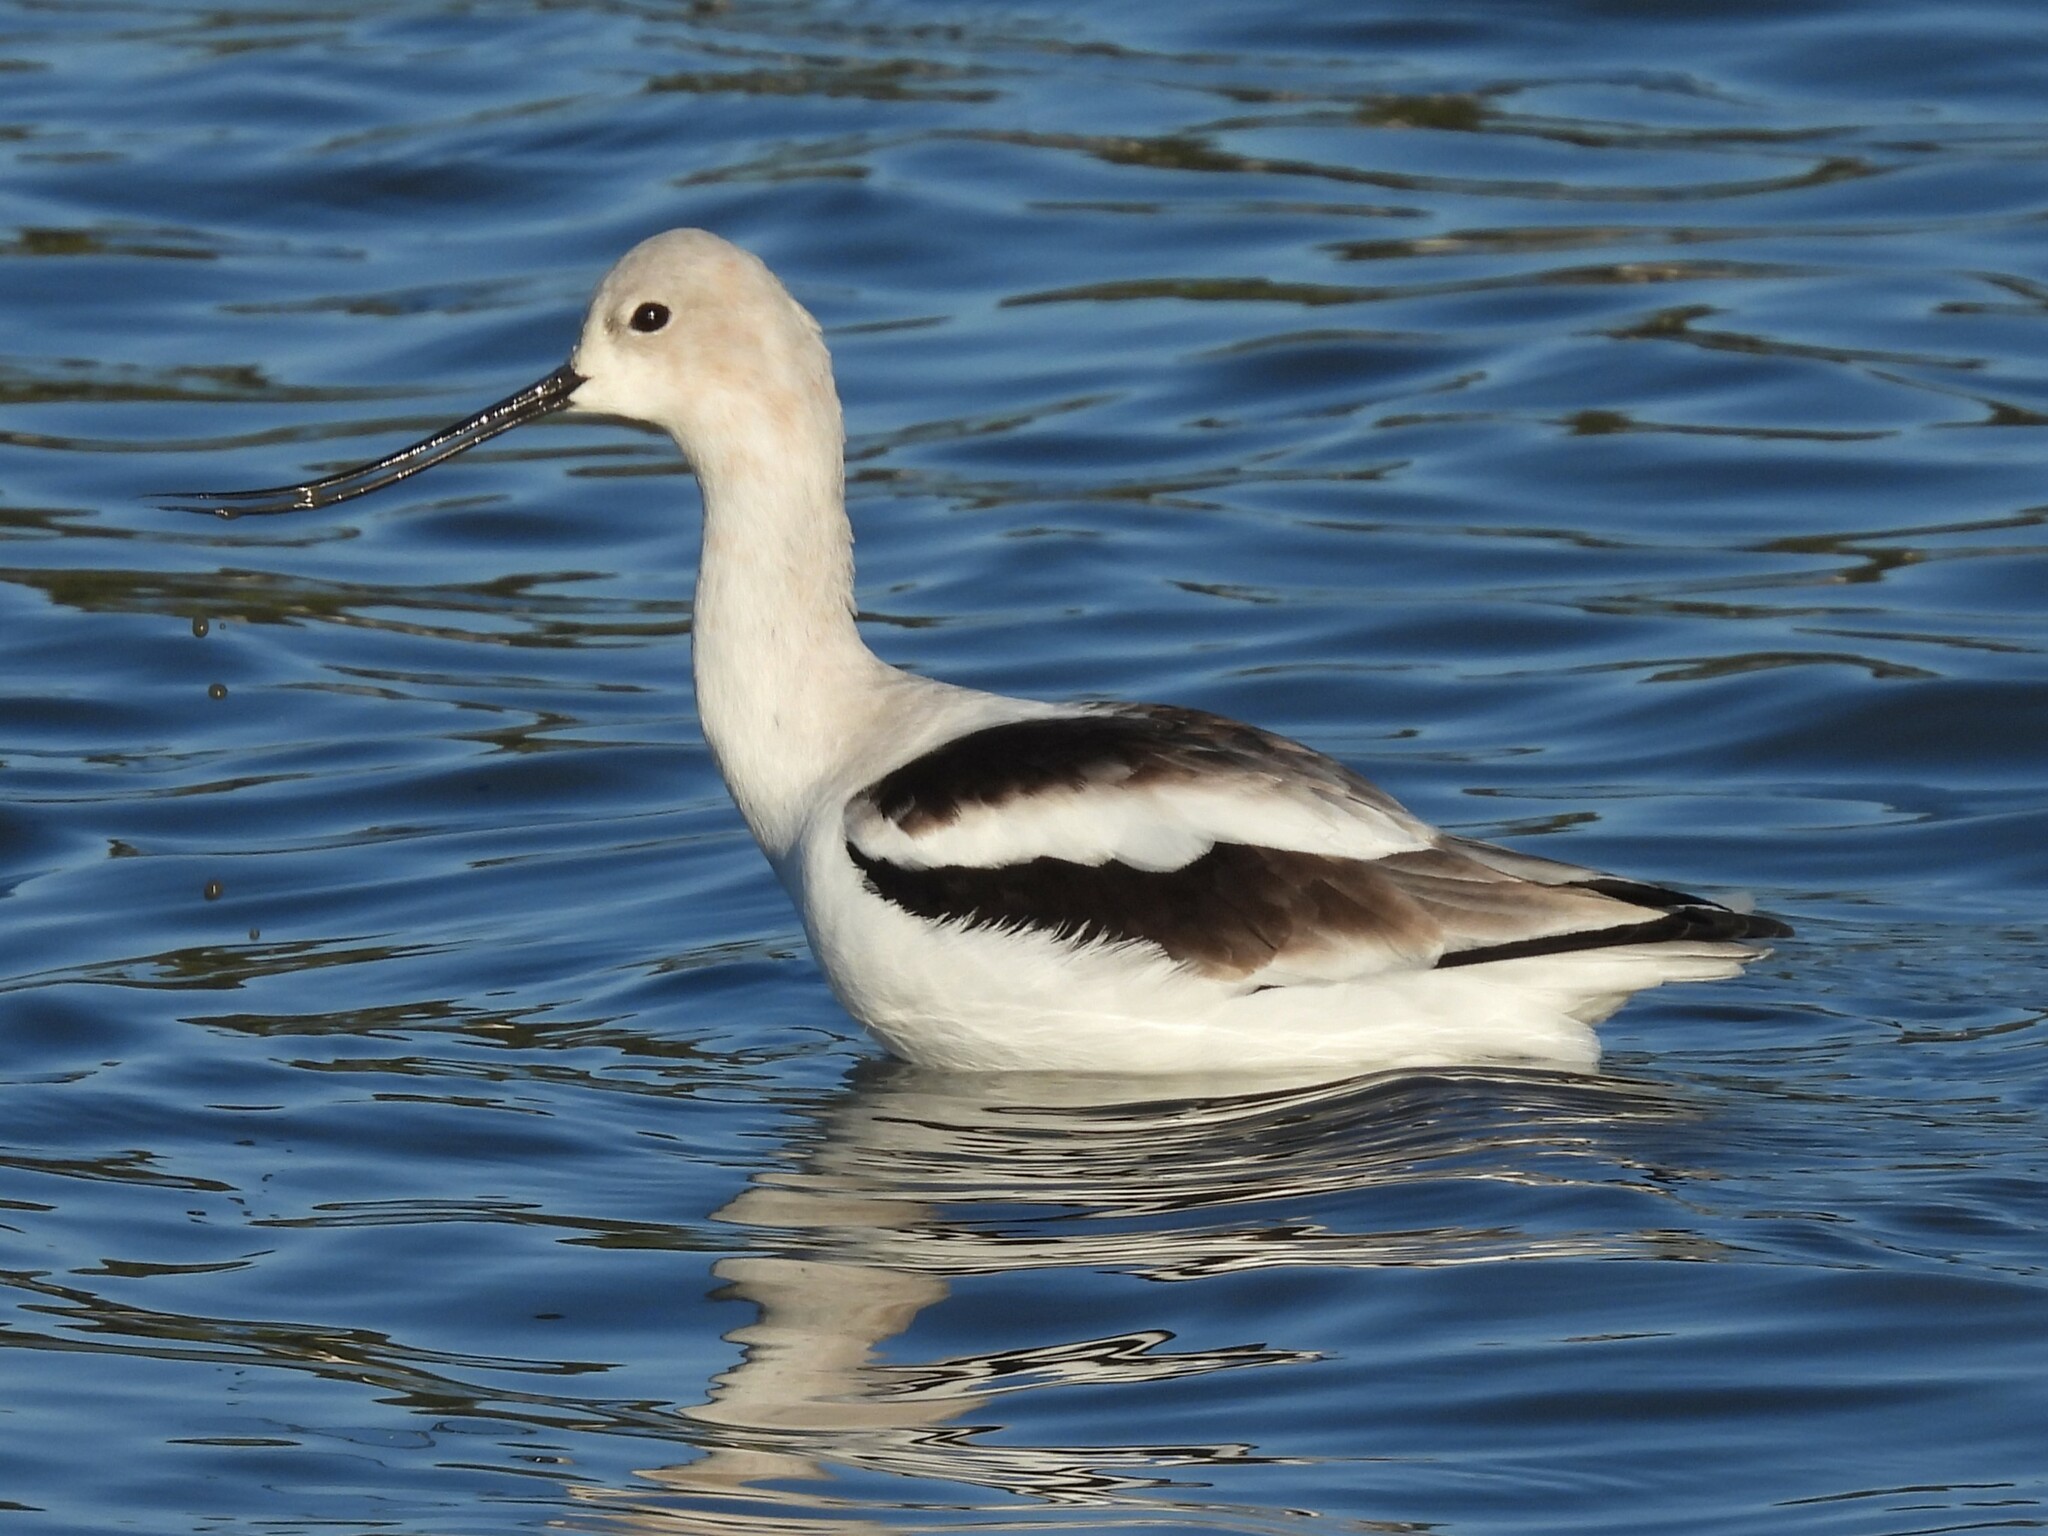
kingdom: Animalia
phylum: Chordata
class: Aves
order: Charadriiformes
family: Recurvirostridae
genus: Recurvirostra
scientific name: Recurvirostra americana
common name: American avocet
